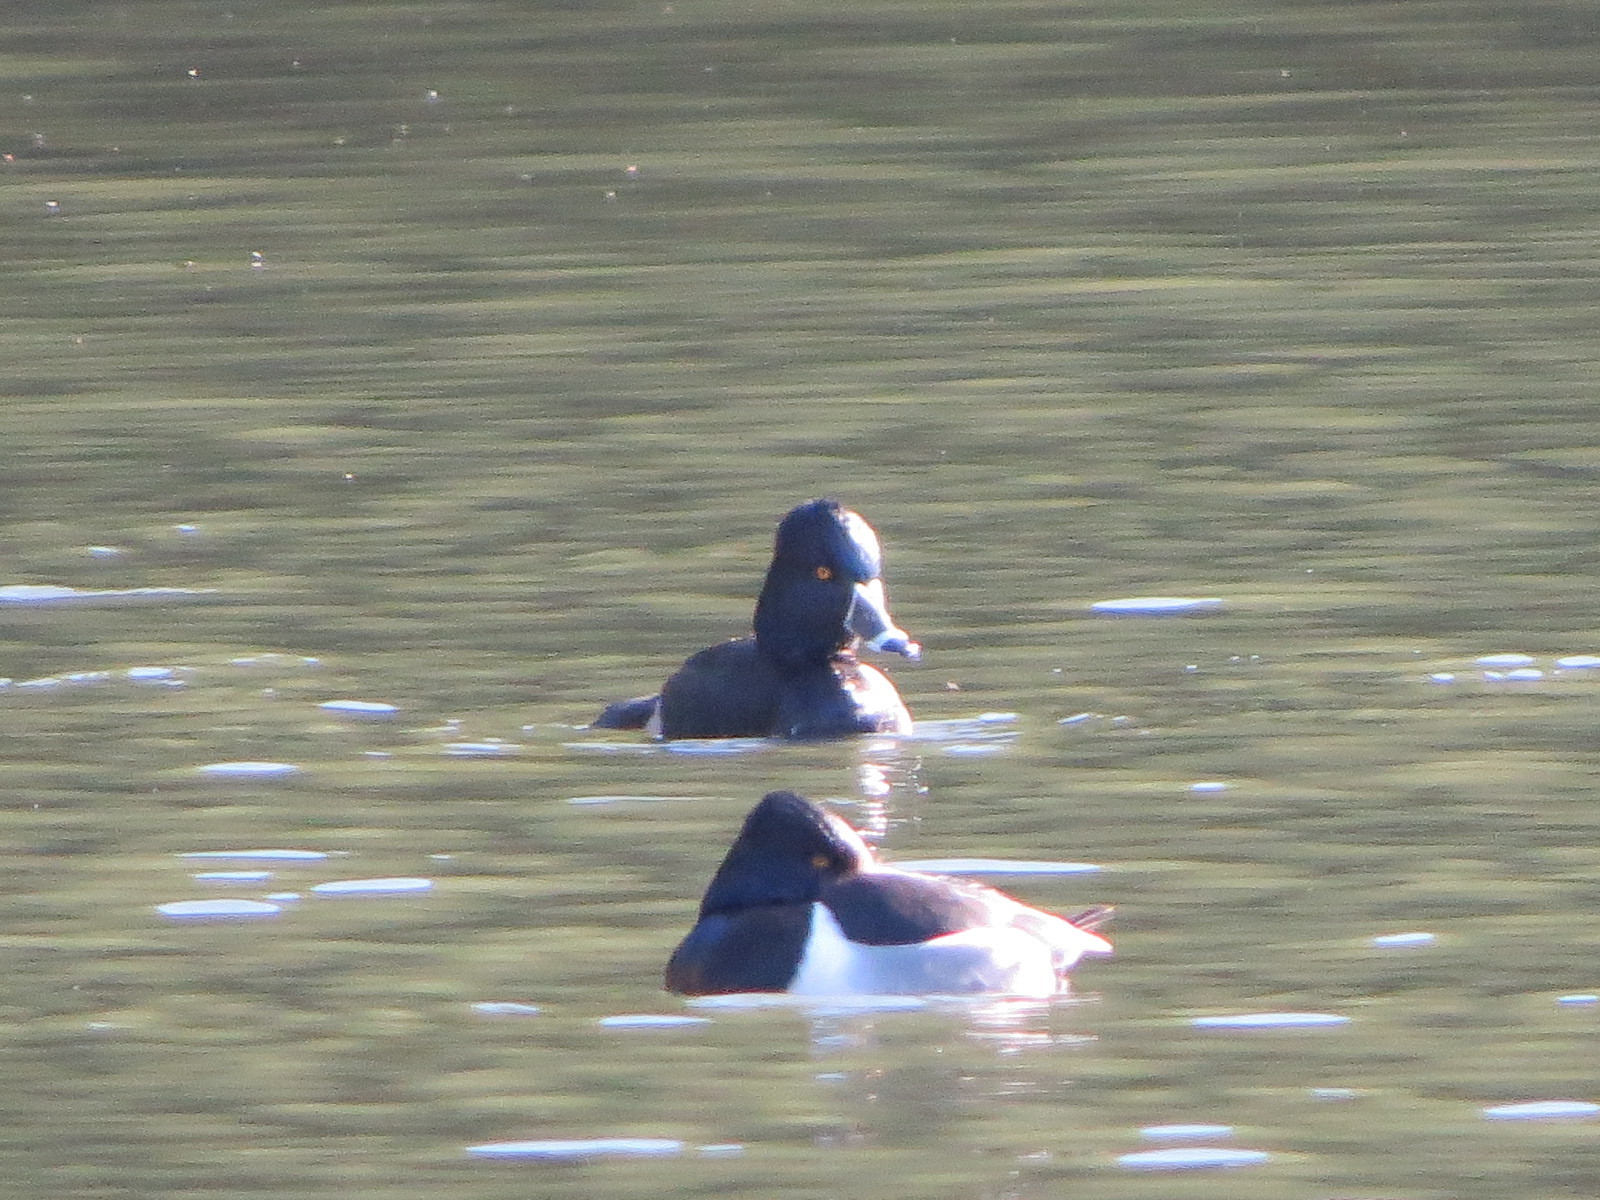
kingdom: Animalia
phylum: Chordata
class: Aves
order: Anseriformes
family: Anatidae
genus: Aythya
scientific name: Aythya collaris
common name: Ring-necked duck
